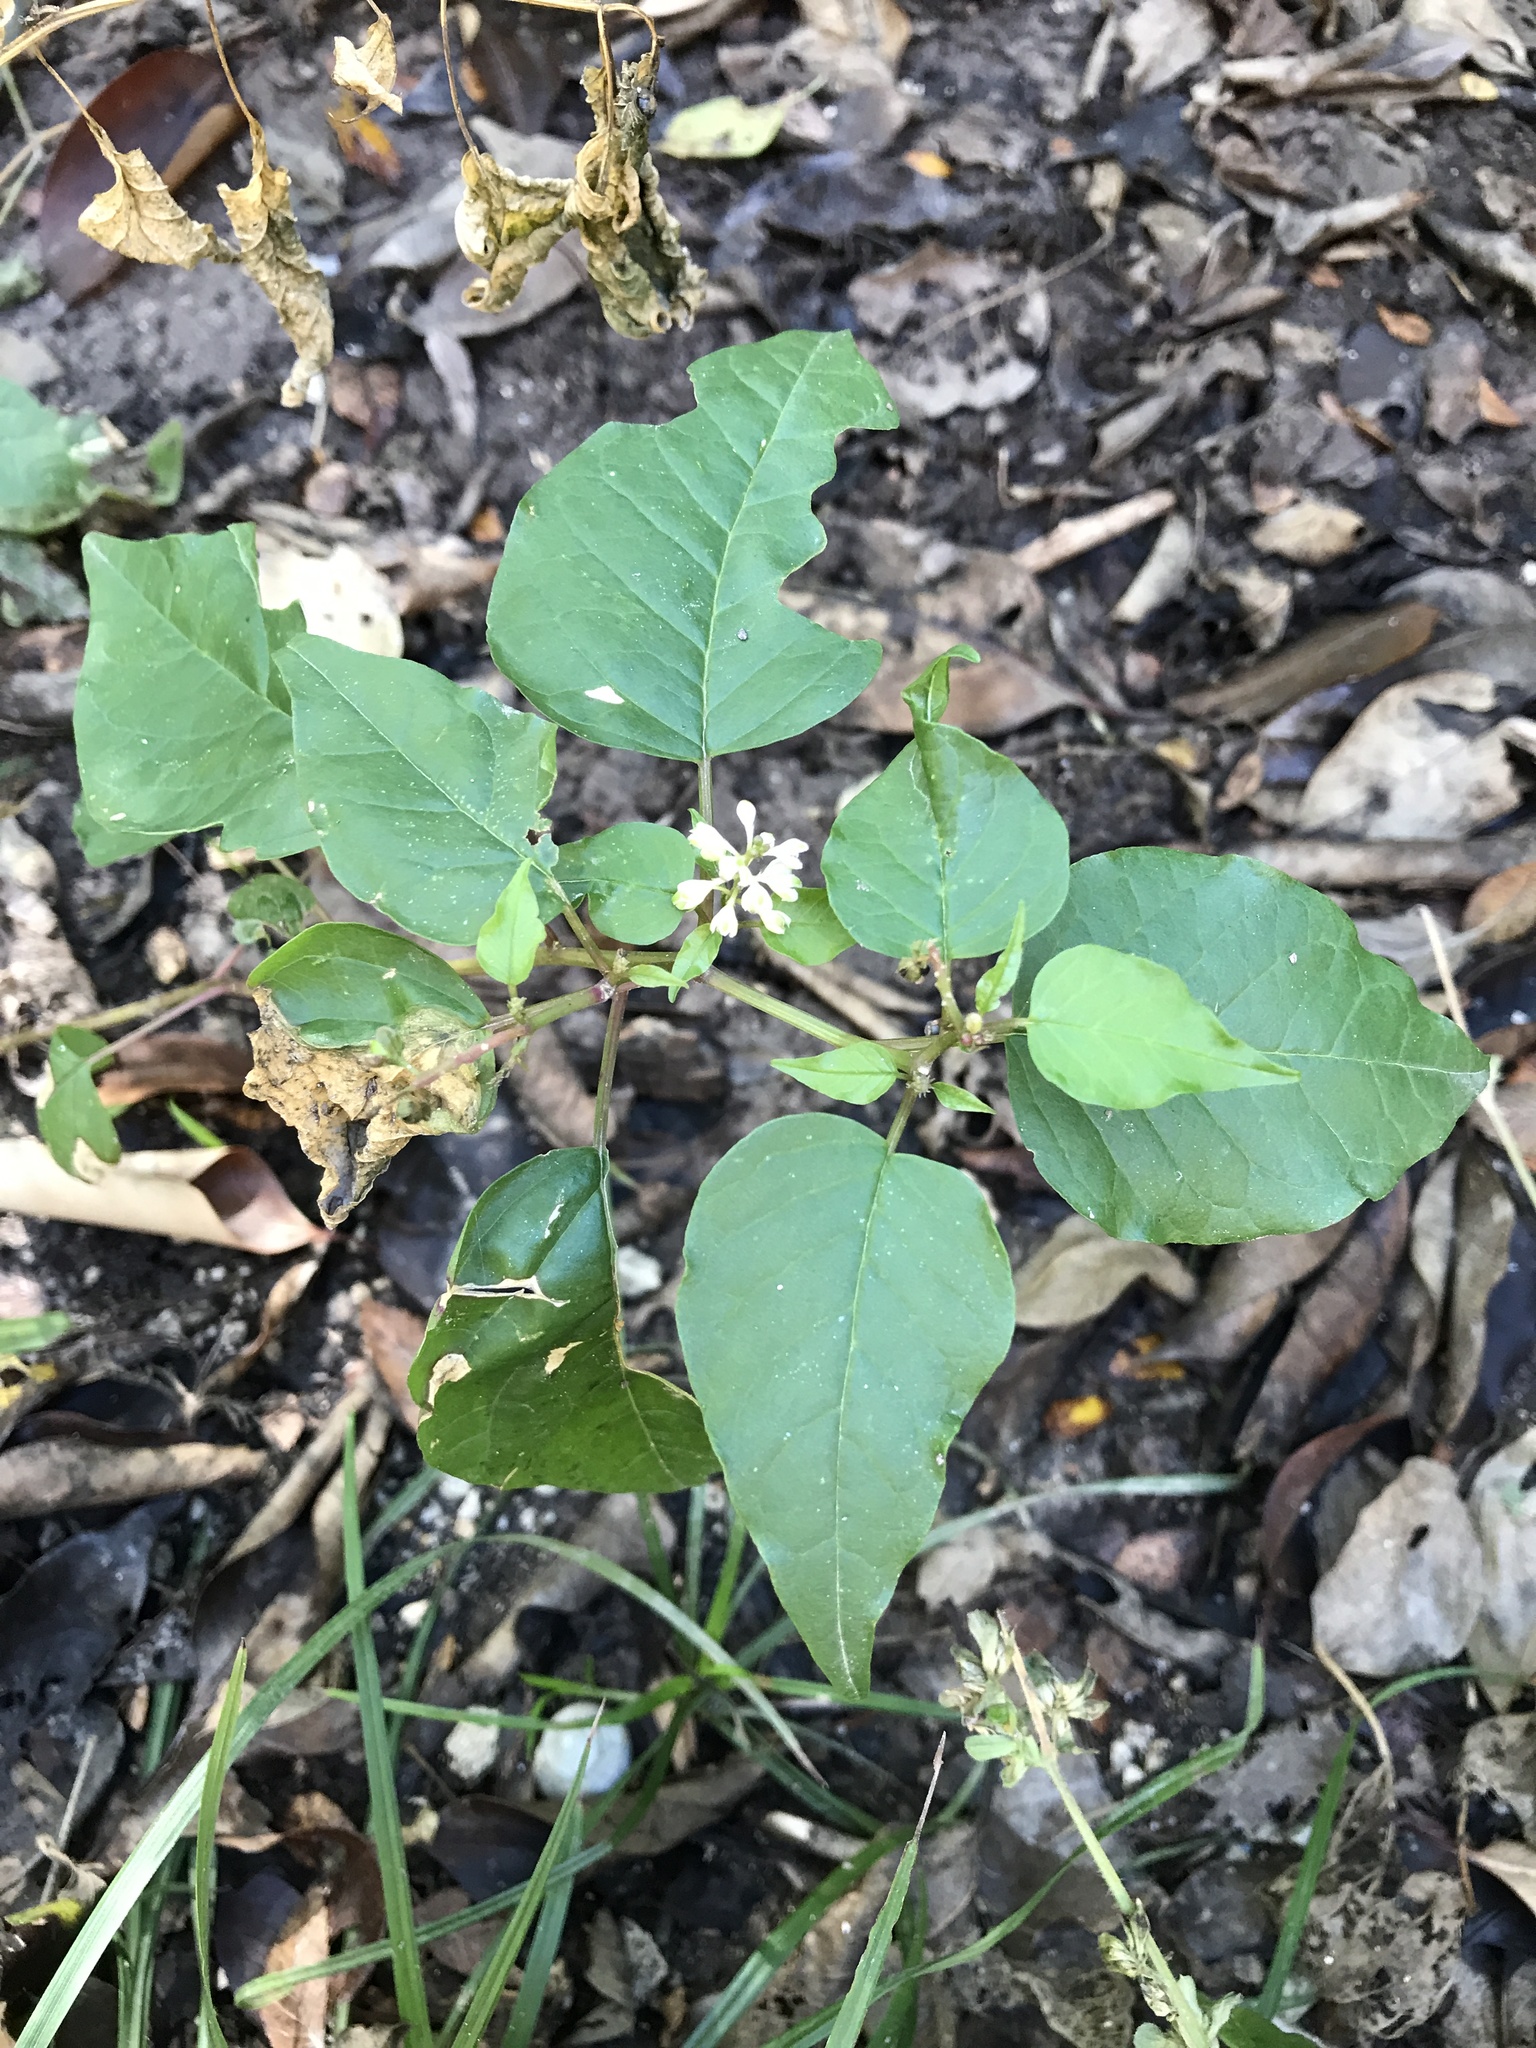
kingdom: Plantae
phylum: Tracheophyta
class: Magnoliopsida
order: Caryophyllales
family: Phytolaccaceae
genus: Rivina
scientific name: Rivina humilis
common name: Rougeplant
